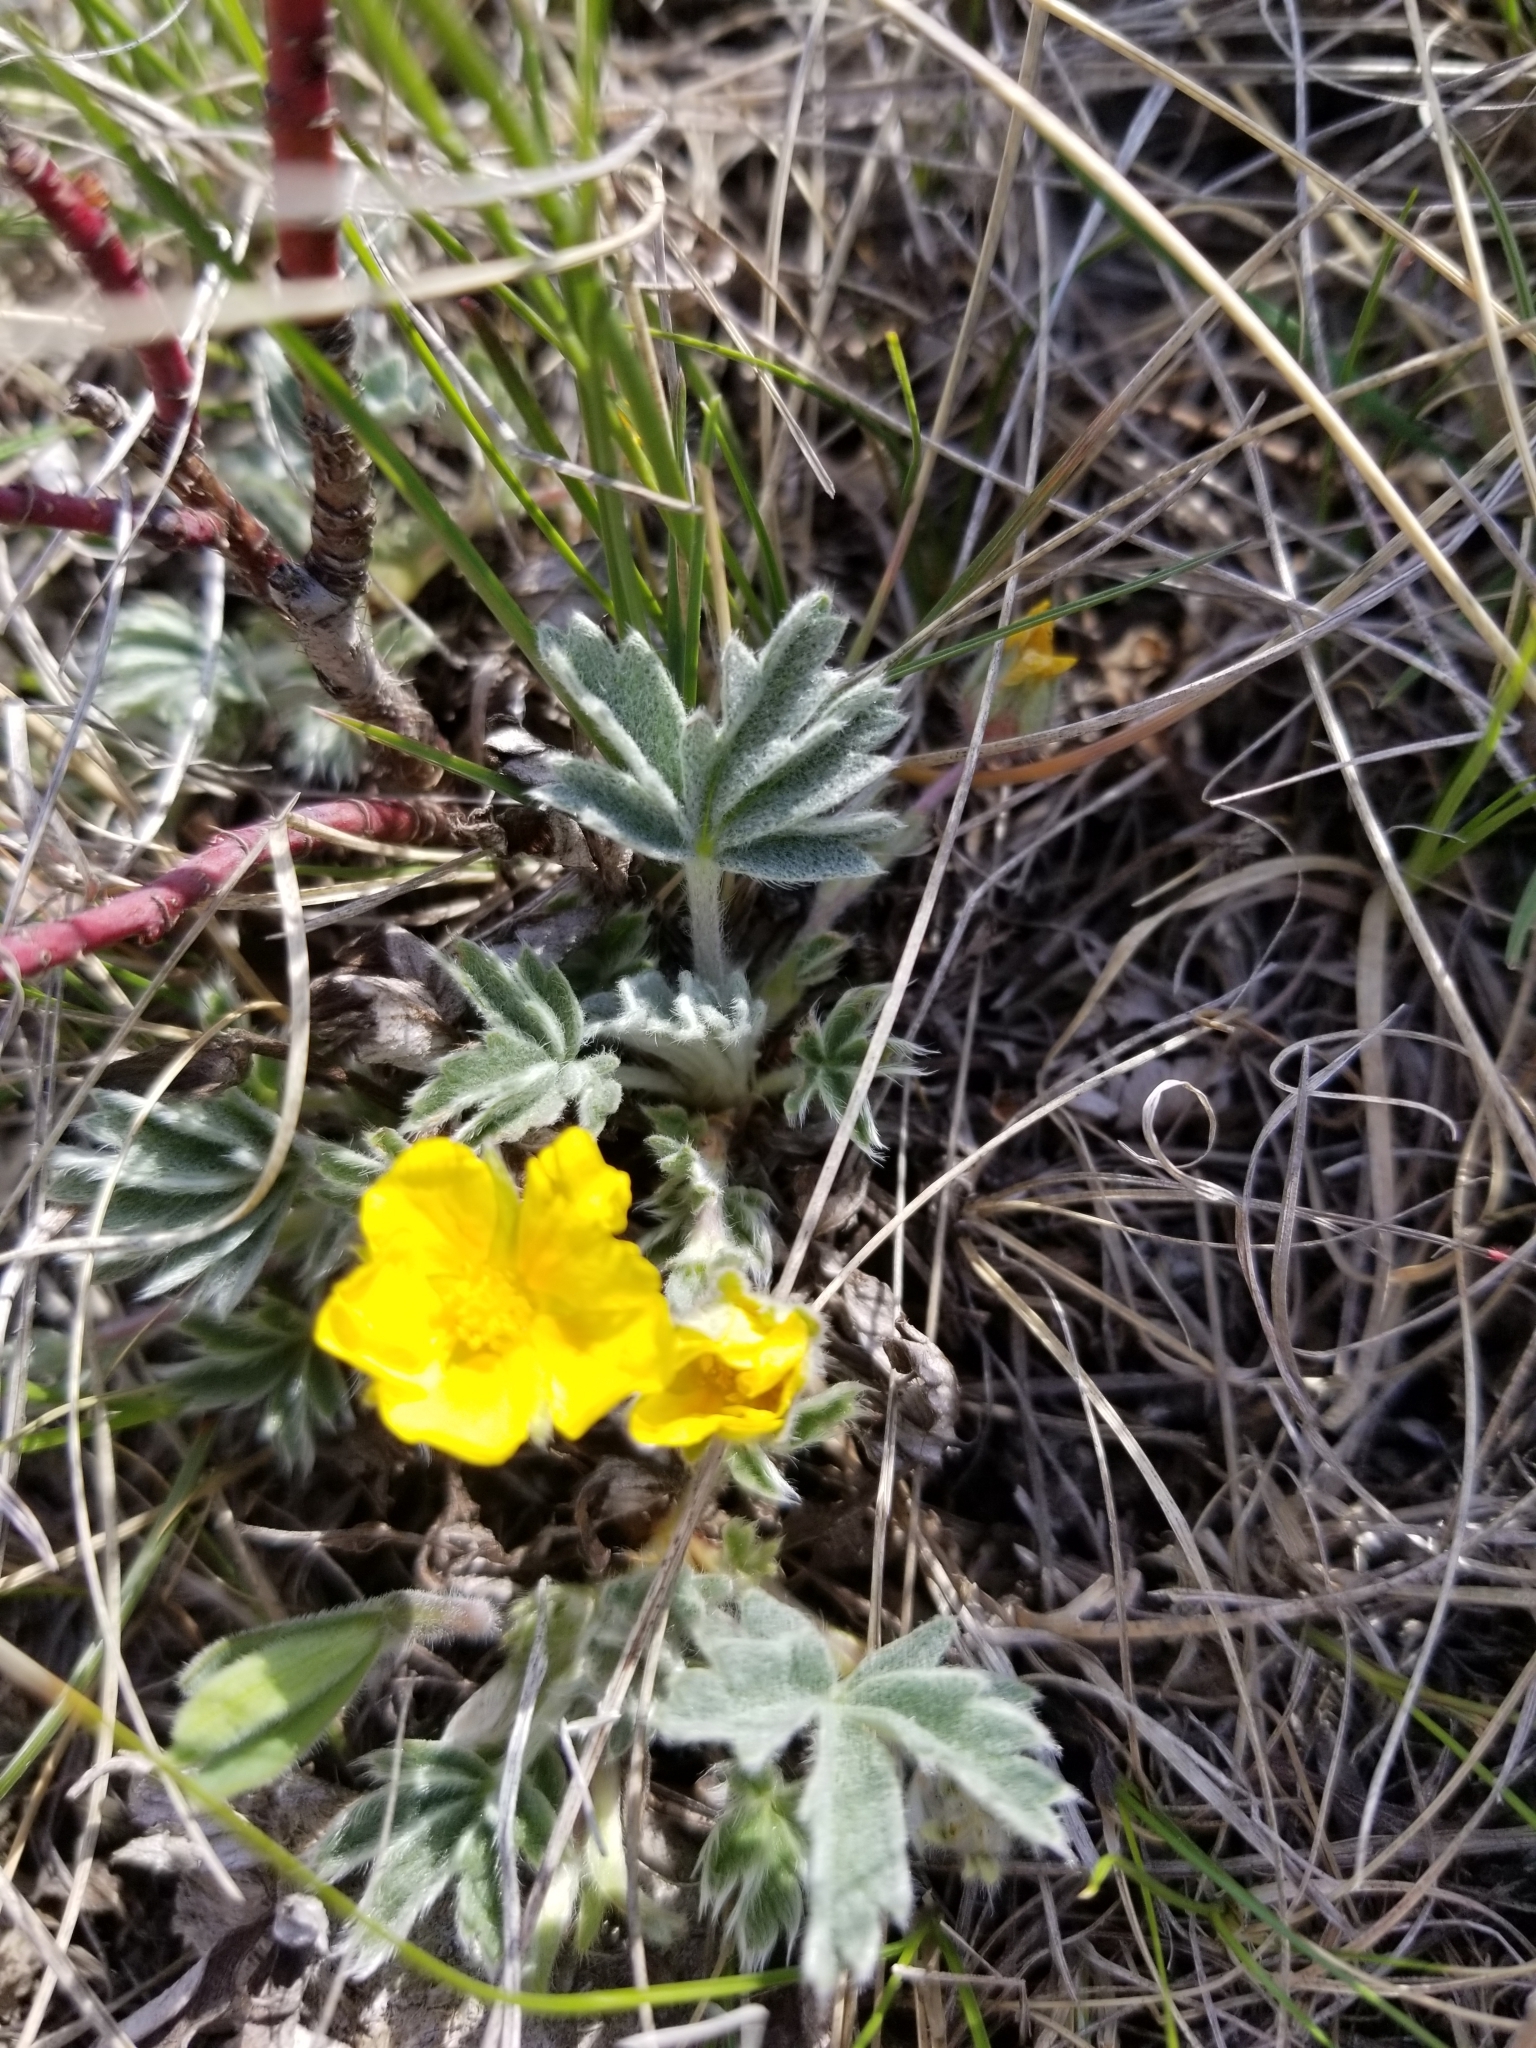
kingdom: Plantae
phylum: Tracheophyta
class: Magnoliopsida
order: Rosales
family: Rosaceae
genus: Potentilla
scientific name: Potentilla concinna
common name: Early cinquefoil
